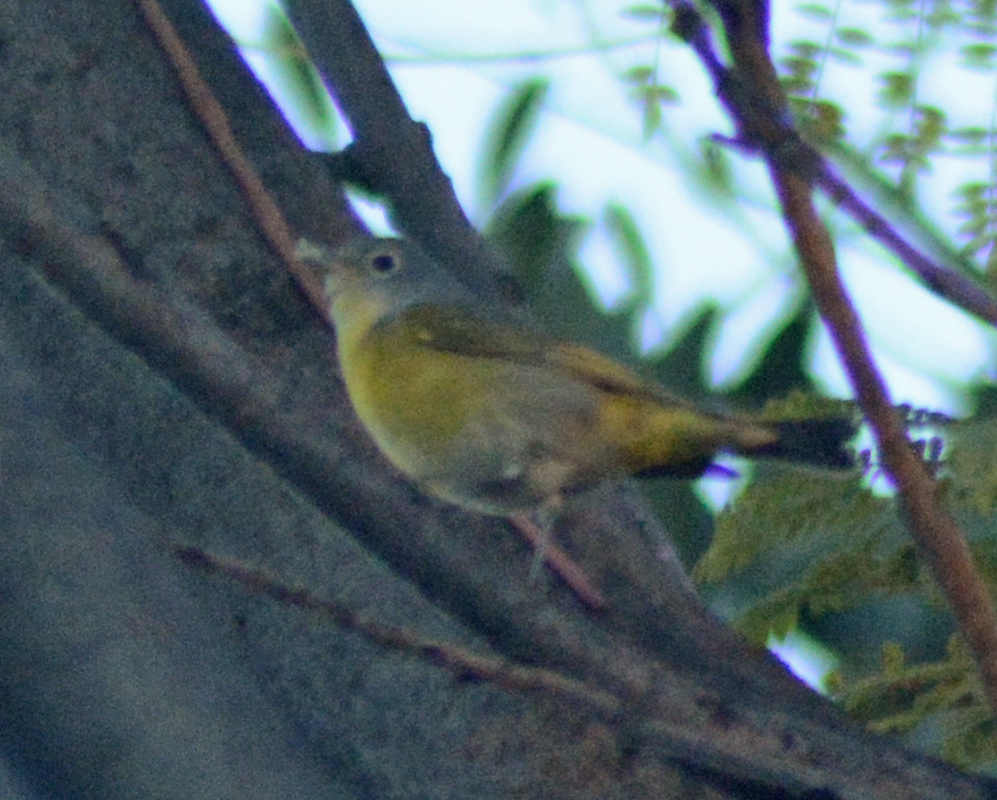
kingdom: Animalia
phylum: Chordata
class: Aves
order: Passeriformes
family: Parulidae
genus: Leiothlypis
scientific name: Leiothlypis ruficapilla
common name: Nashville warbler
